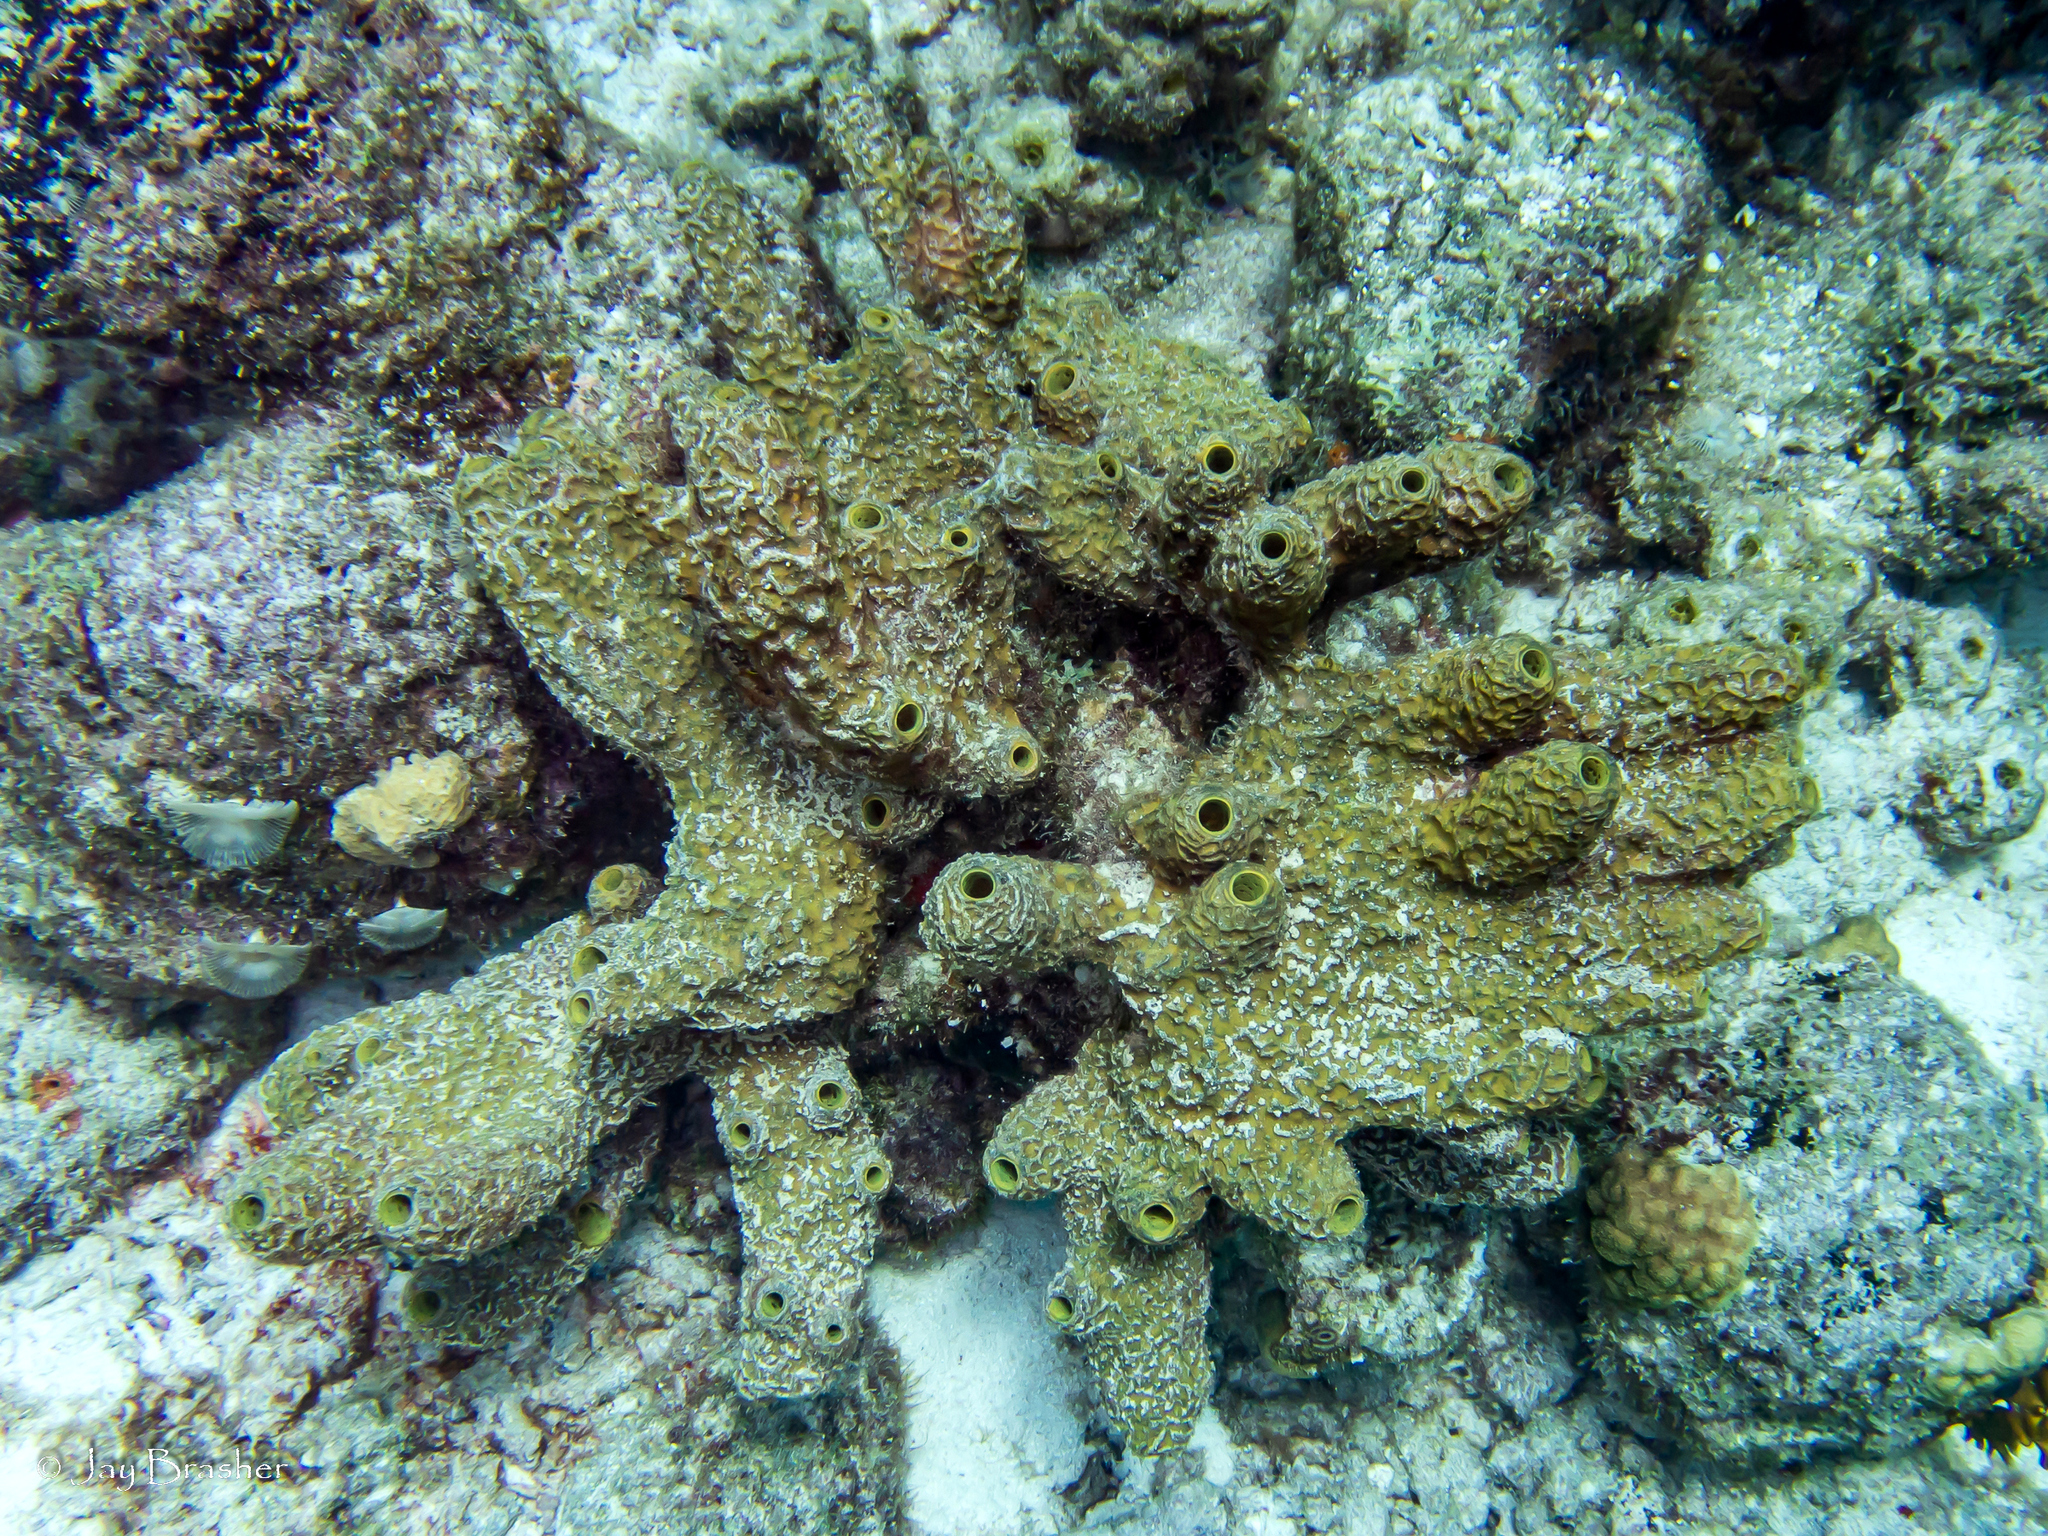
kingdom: Animalia
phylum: Porifera
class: Demospongiae
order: Verongiida
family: Aplysinidae
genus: Verongula
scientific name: Verongula rigida
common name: Pitted sponge
